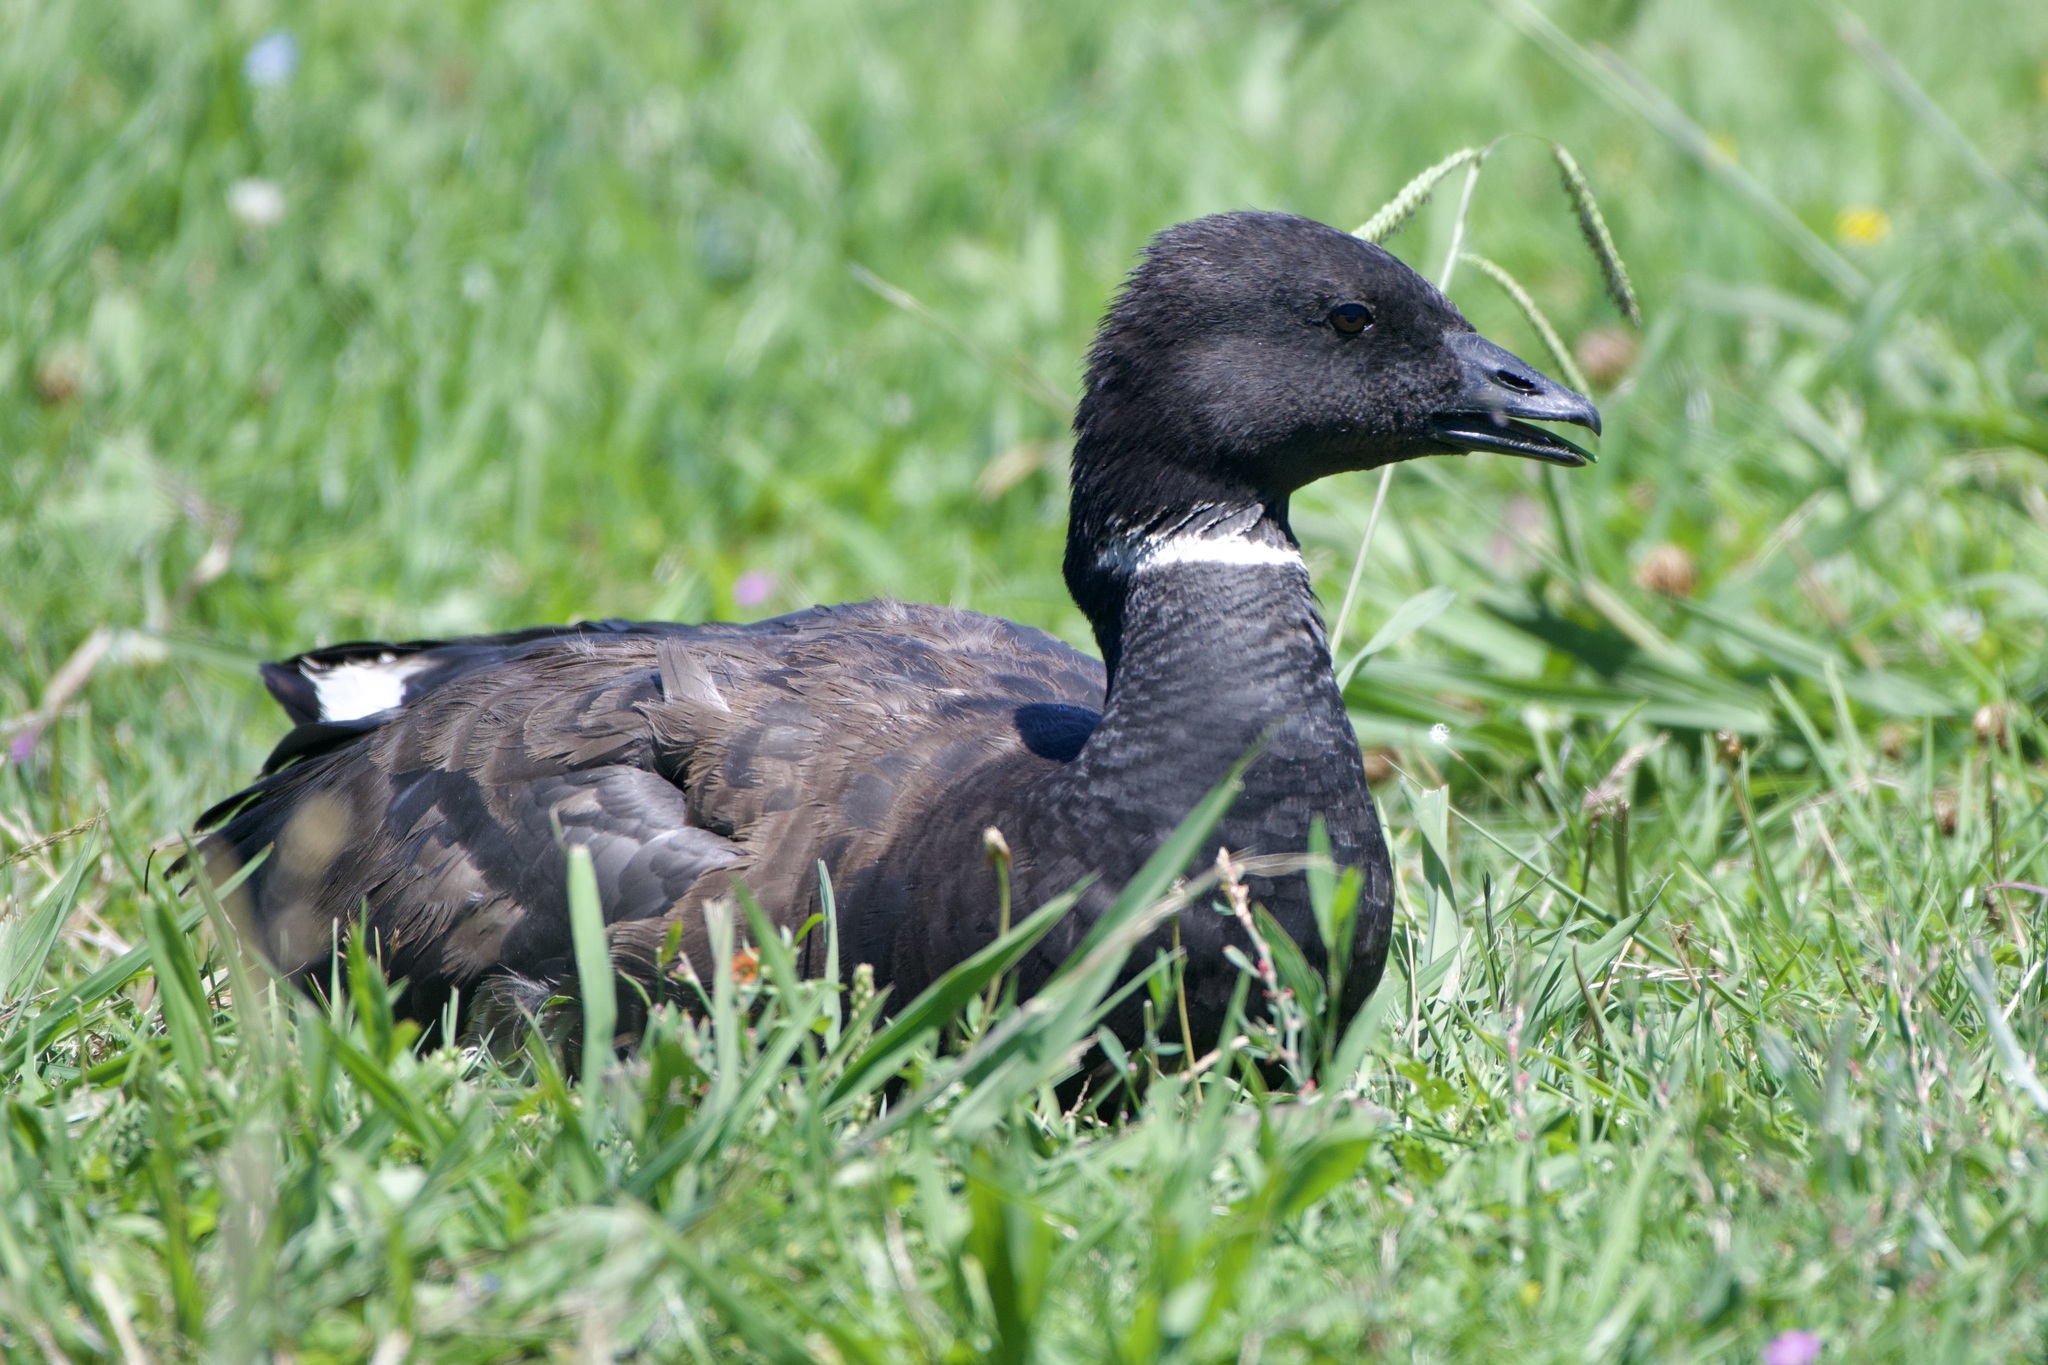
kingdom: Animalia
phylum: Chordata
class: Aves
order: Anseriformes
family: Anatidae
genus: Branta
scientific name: Branta bernicla
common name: Brant goose
